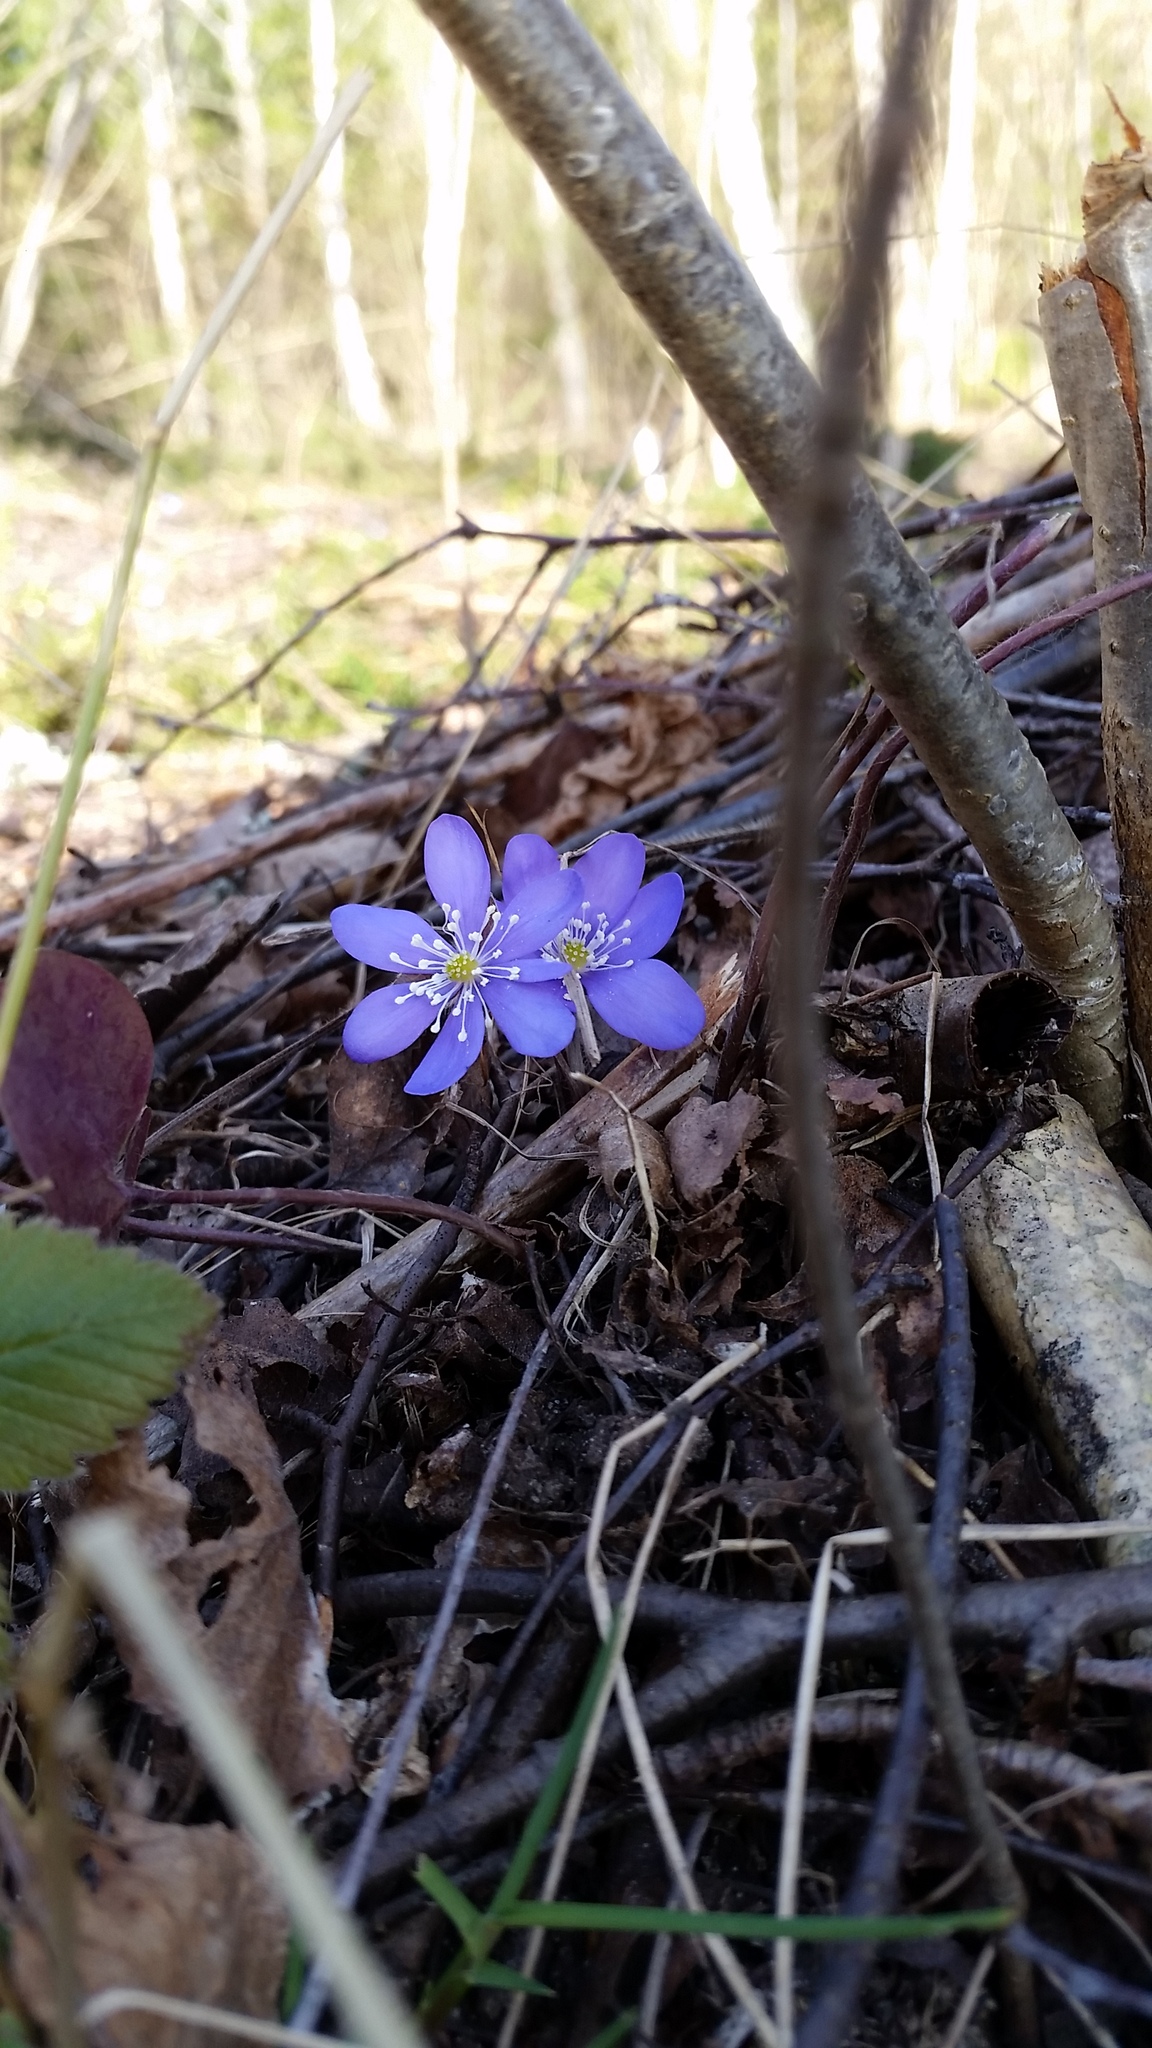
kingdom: Plantae
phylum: Tracheophyta
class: Magnoliopsida
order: Ranunculales
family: Ranunculaceae
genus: Hepatica
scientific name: Hepatica nobilis
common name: Liverleaf
